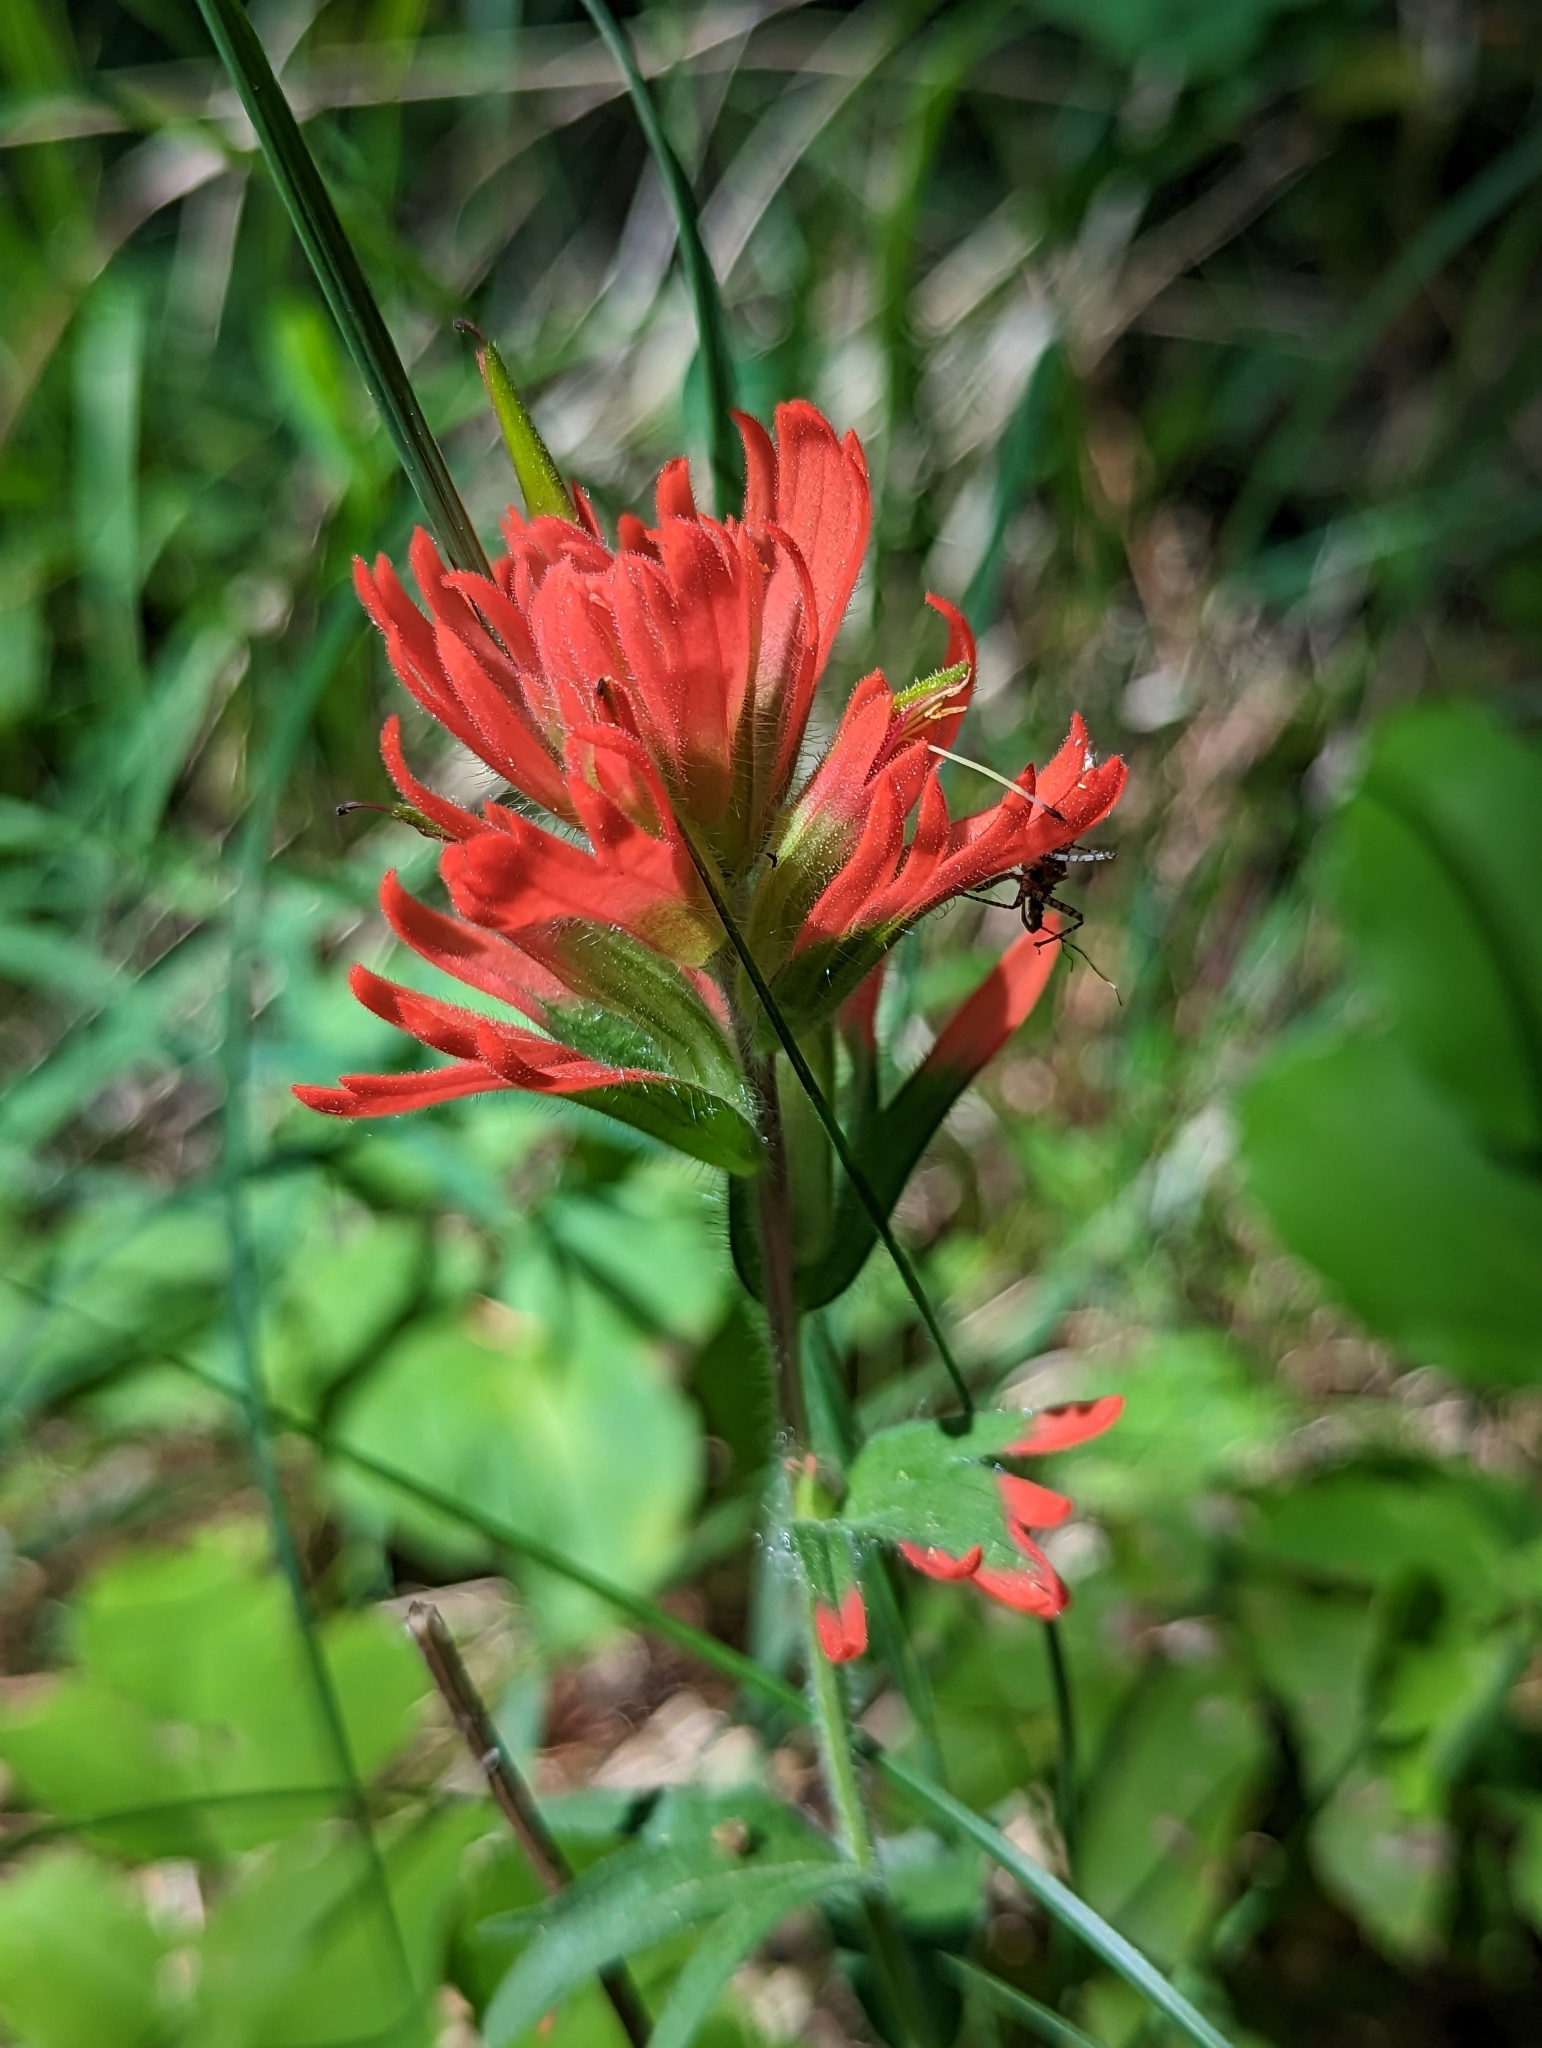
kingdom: Plantae
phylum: Tracheophyta
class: Magnoliopsida
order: Lamiales
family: Orobanchaceae
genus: Castilleja
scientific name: Castilleja hispida
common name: Bristly paintbrush
